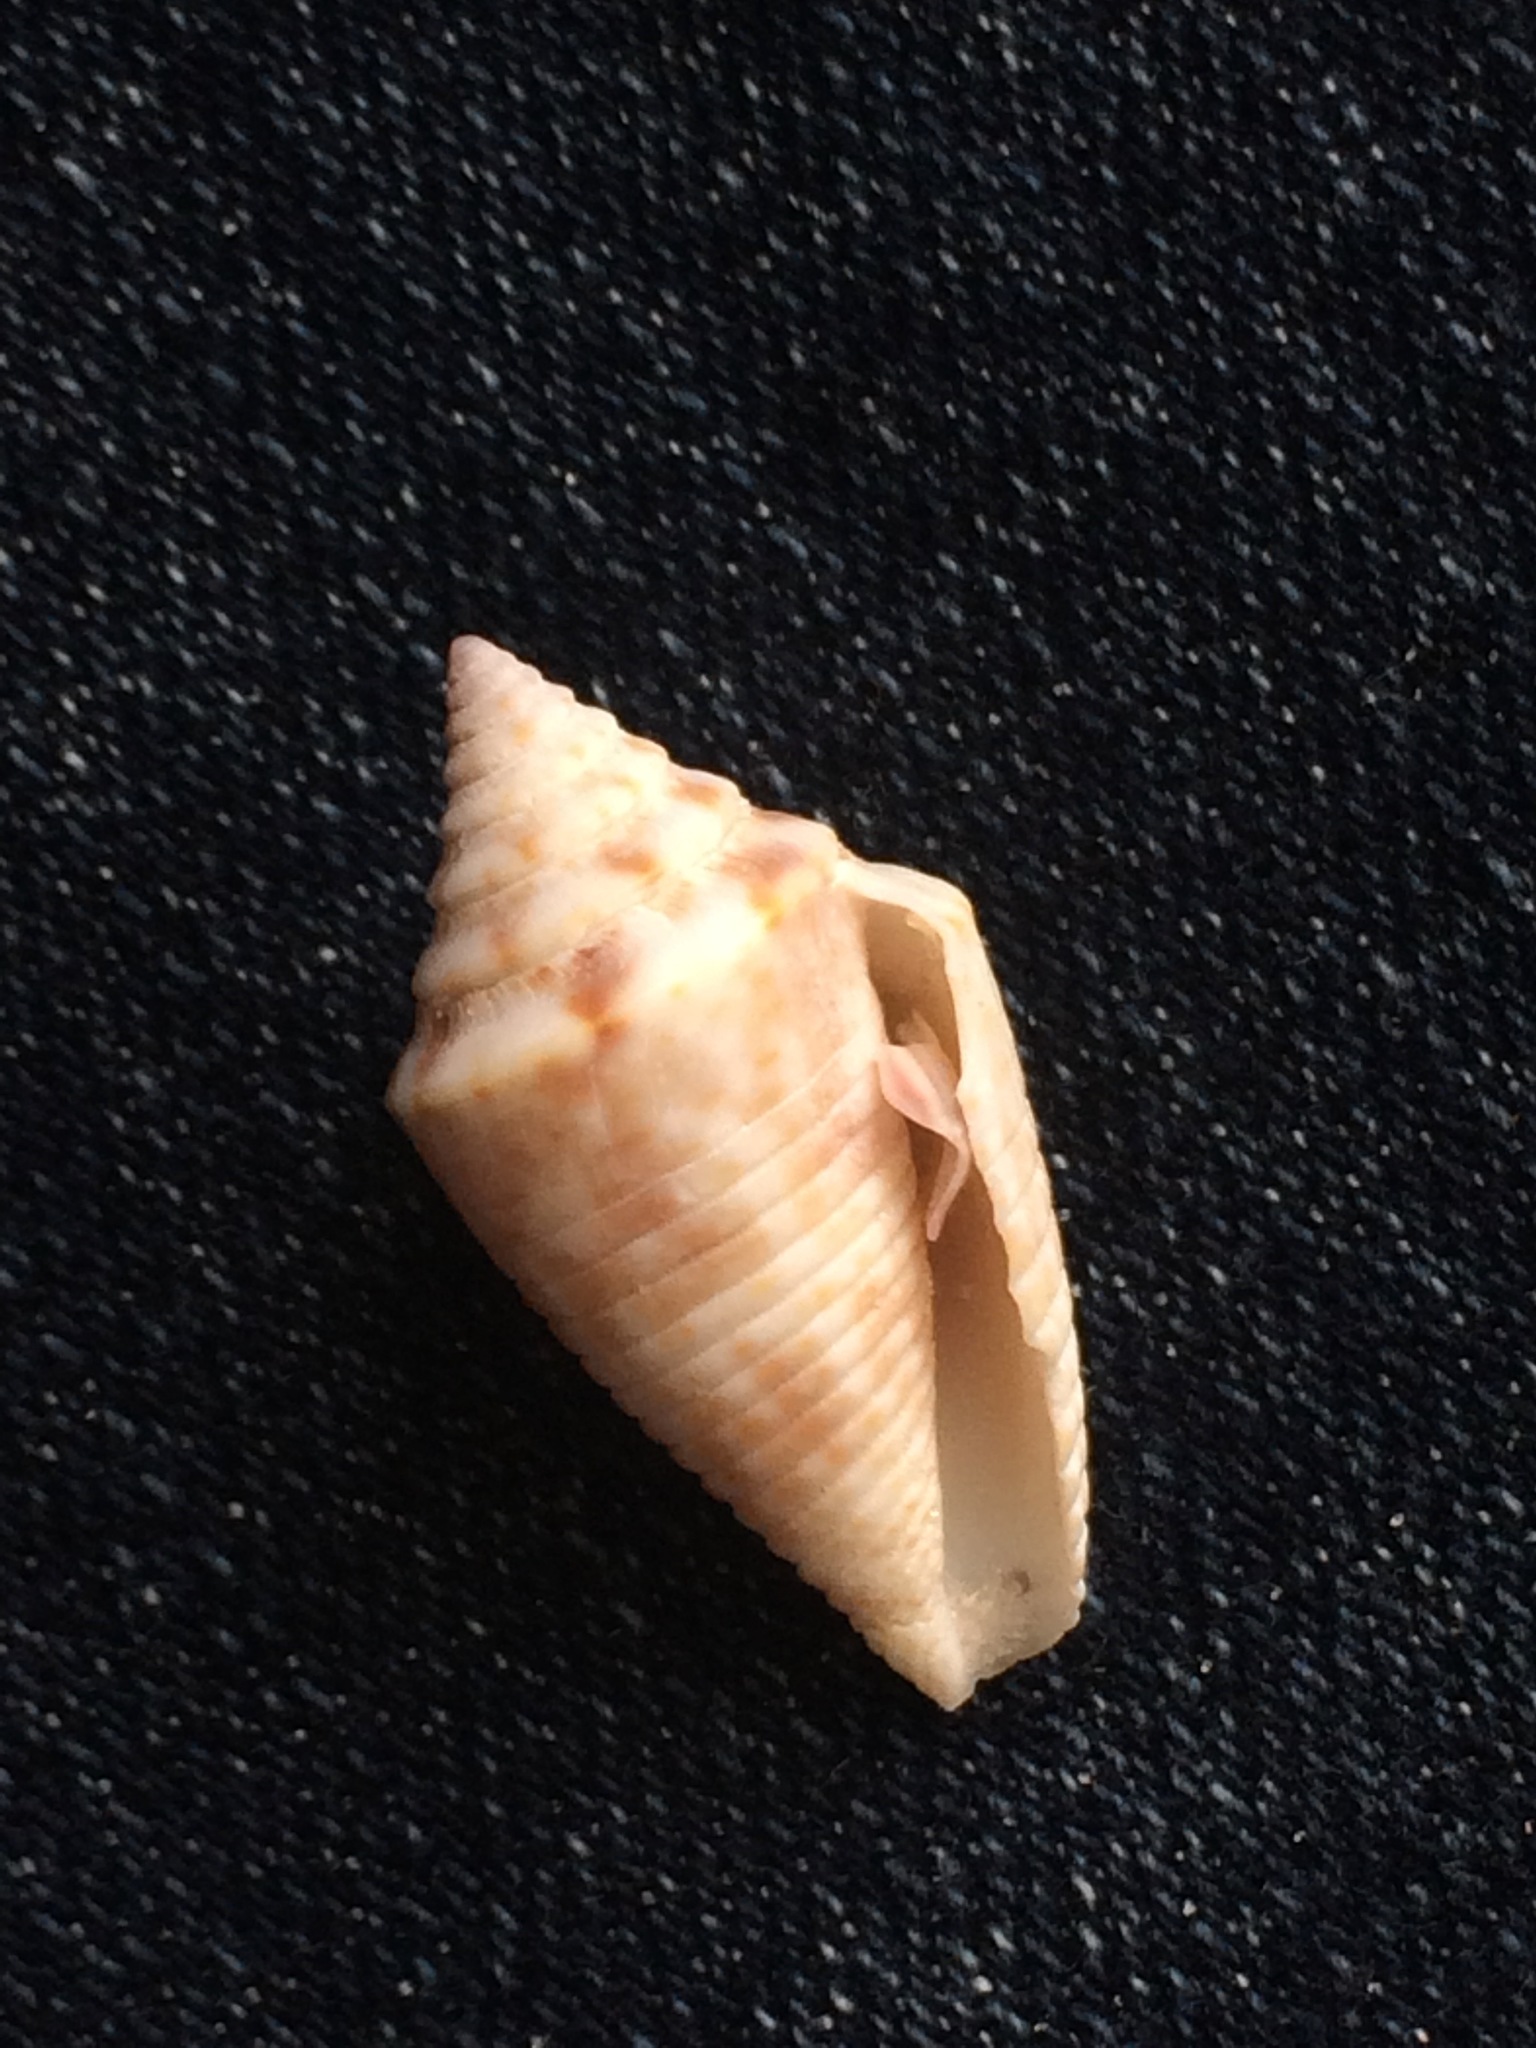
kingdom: Animalia
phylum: Mollusca
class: Gastropoda
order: Neogastropoda
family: Conidae
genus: Conasprella
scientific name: Conasprella stearnsii
